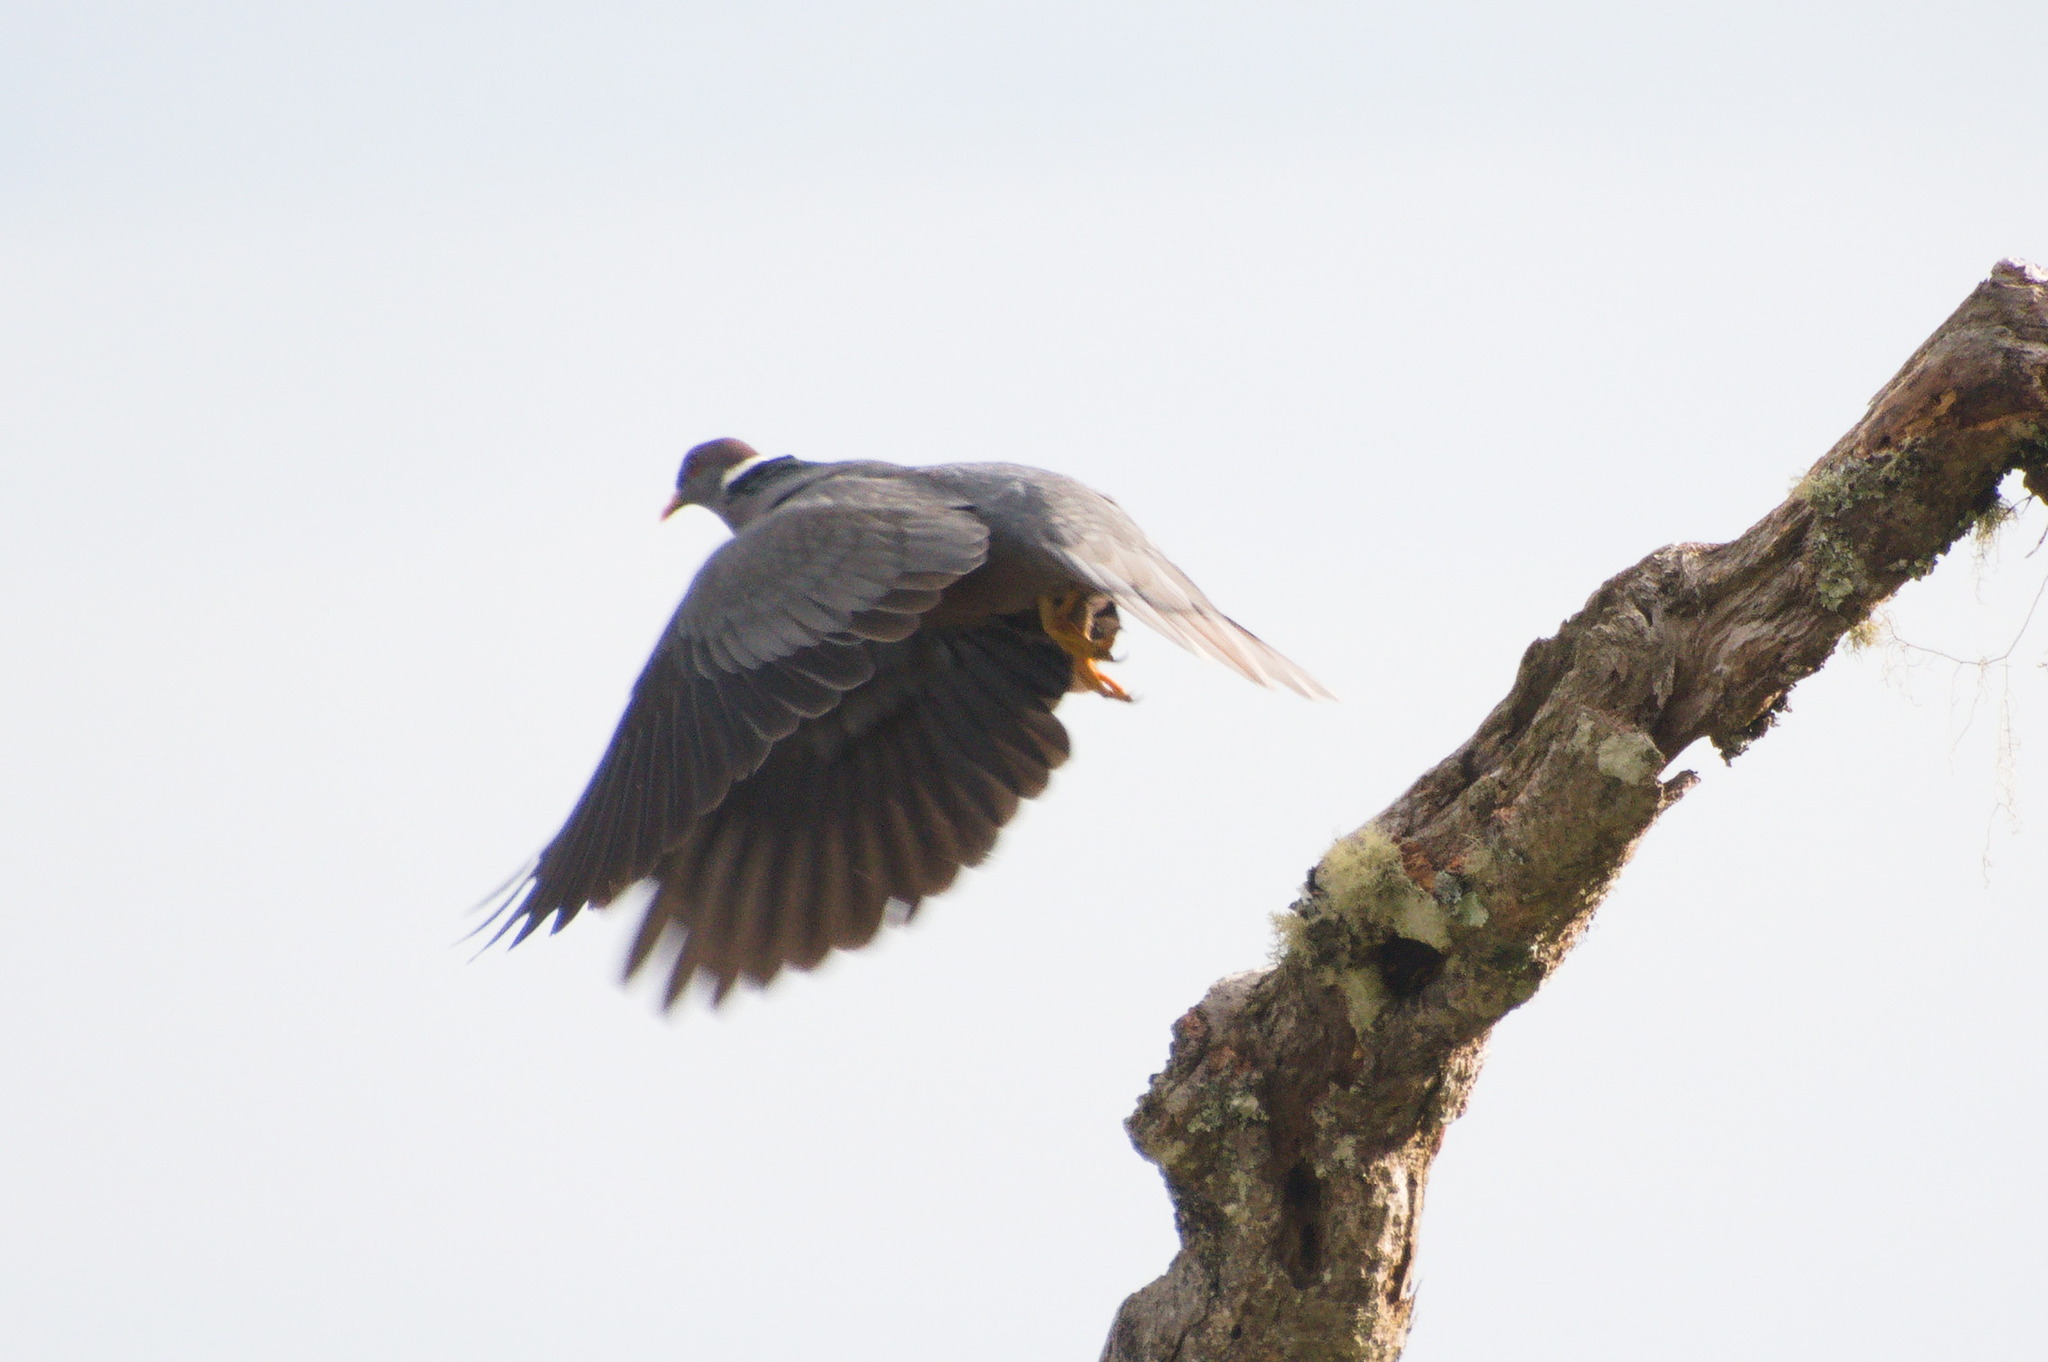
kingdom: Animalia
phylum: Chordata
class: Aves
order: Columbiformes
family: Columbidae
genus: Patagioenas
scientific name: Patagioenas fasciata
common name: Band-tailed pigeon
